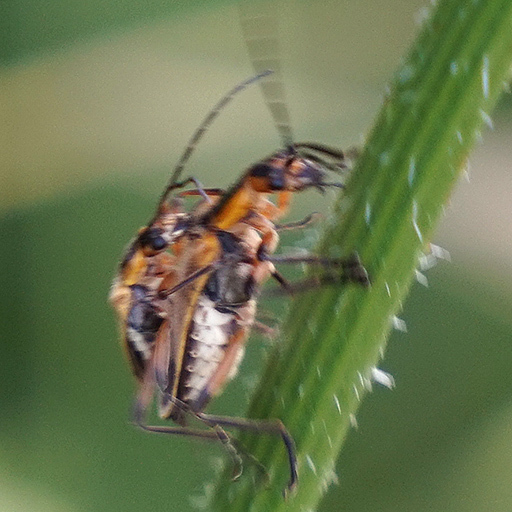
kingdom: Animalia
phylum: Arthropoda
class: Insecta
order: Coleoptera
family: Cantharidae
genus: Chauliognathus
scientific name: Chauliognathus marginatus
